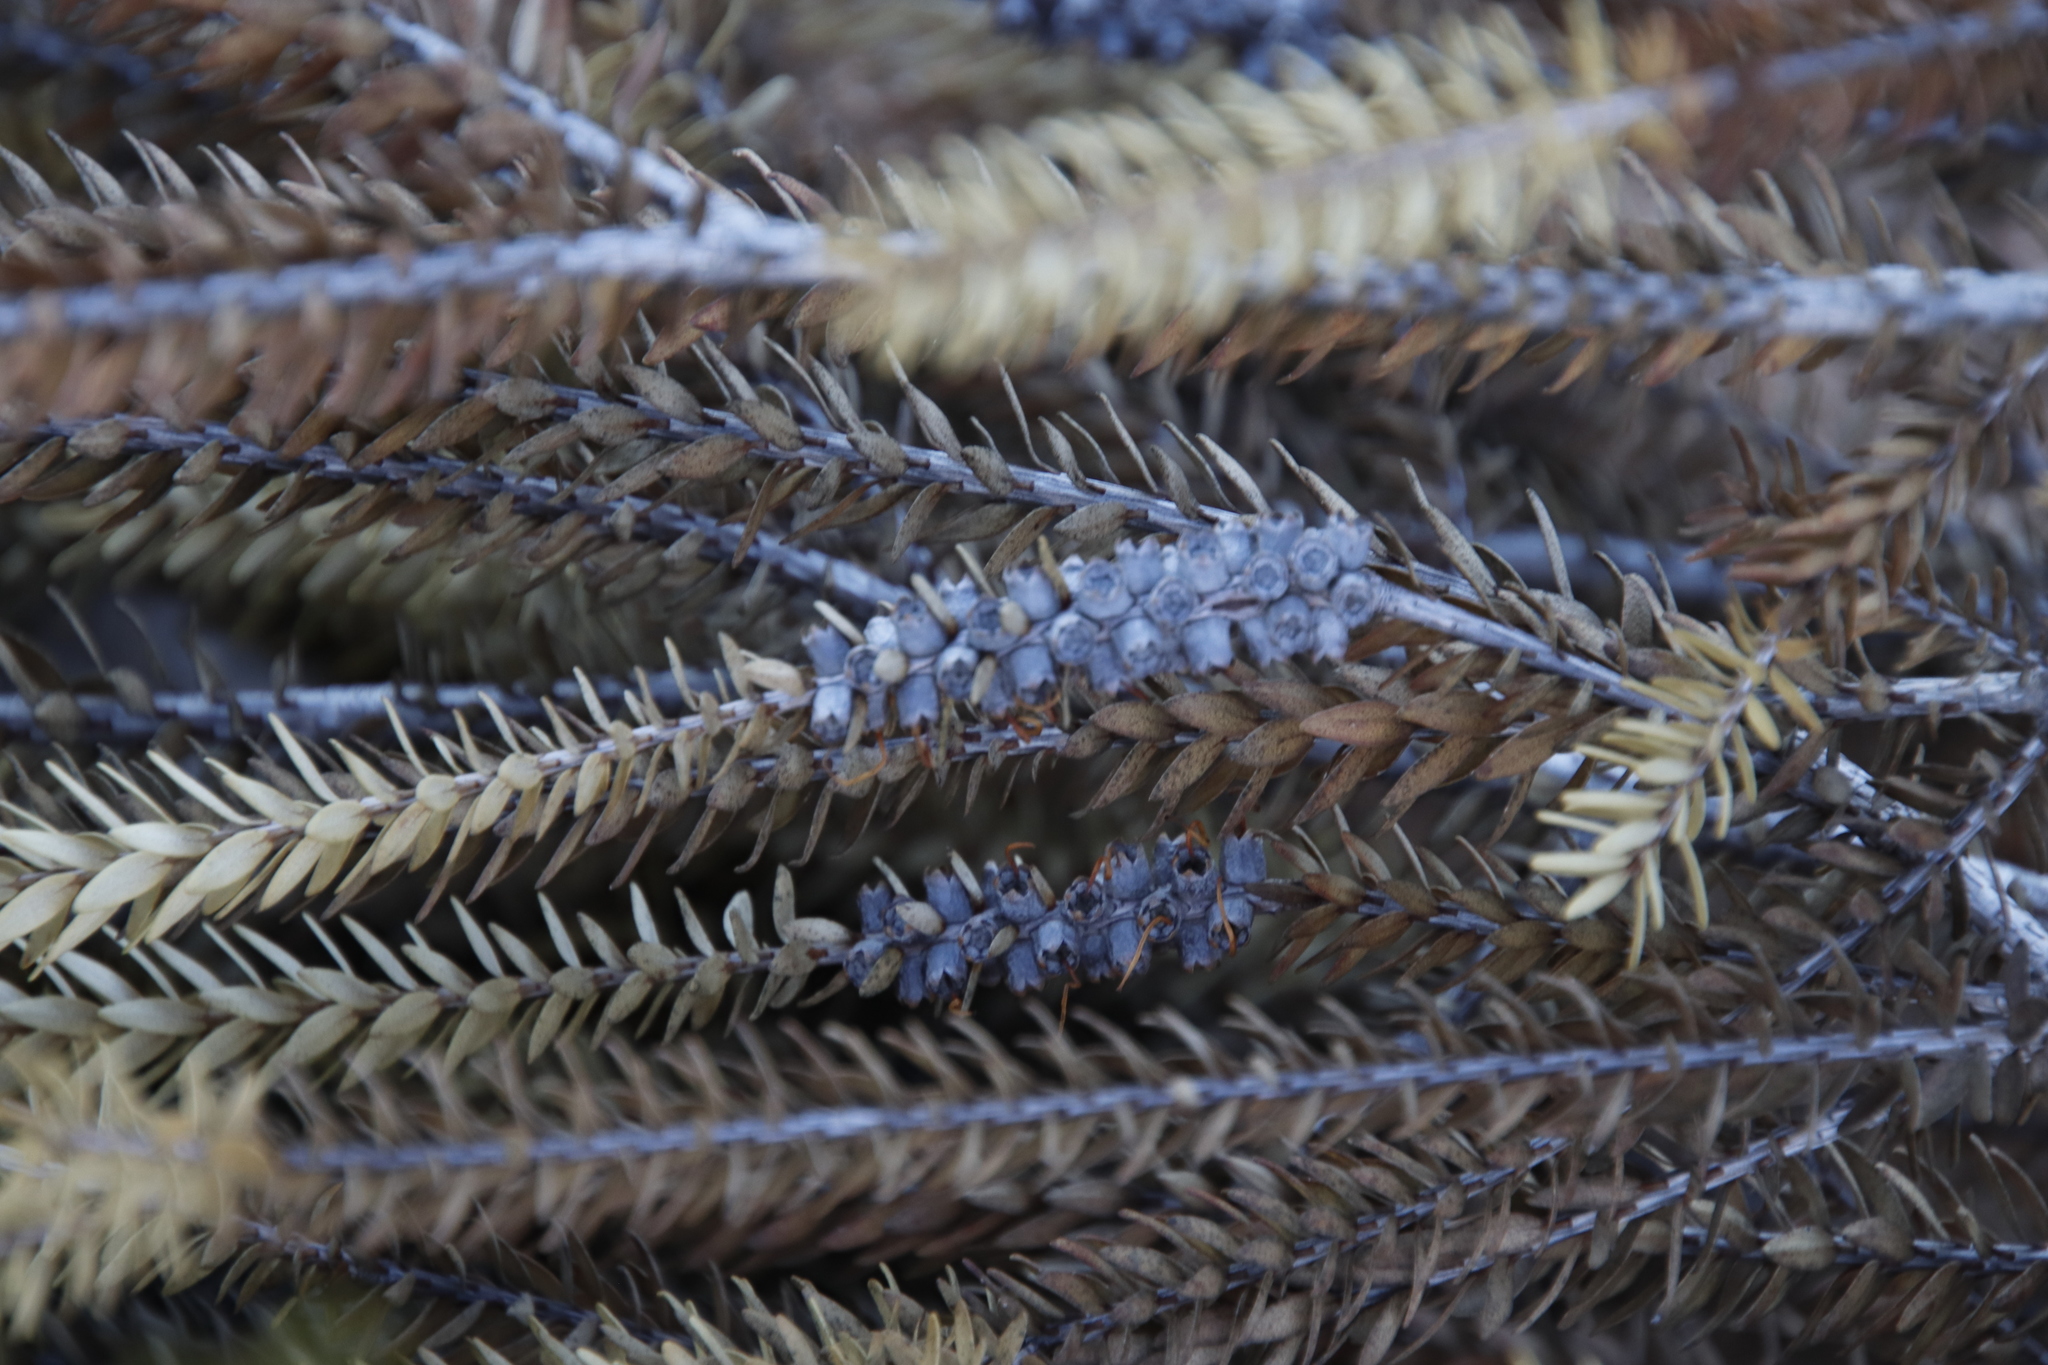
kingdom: Plantae
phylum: Tracheophyta
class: Magnoliopsida
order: Myrtales
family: Myrtaceae
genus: Melaleuca
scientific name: Melaleuca diosmifolia
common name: Green honey myrtle
